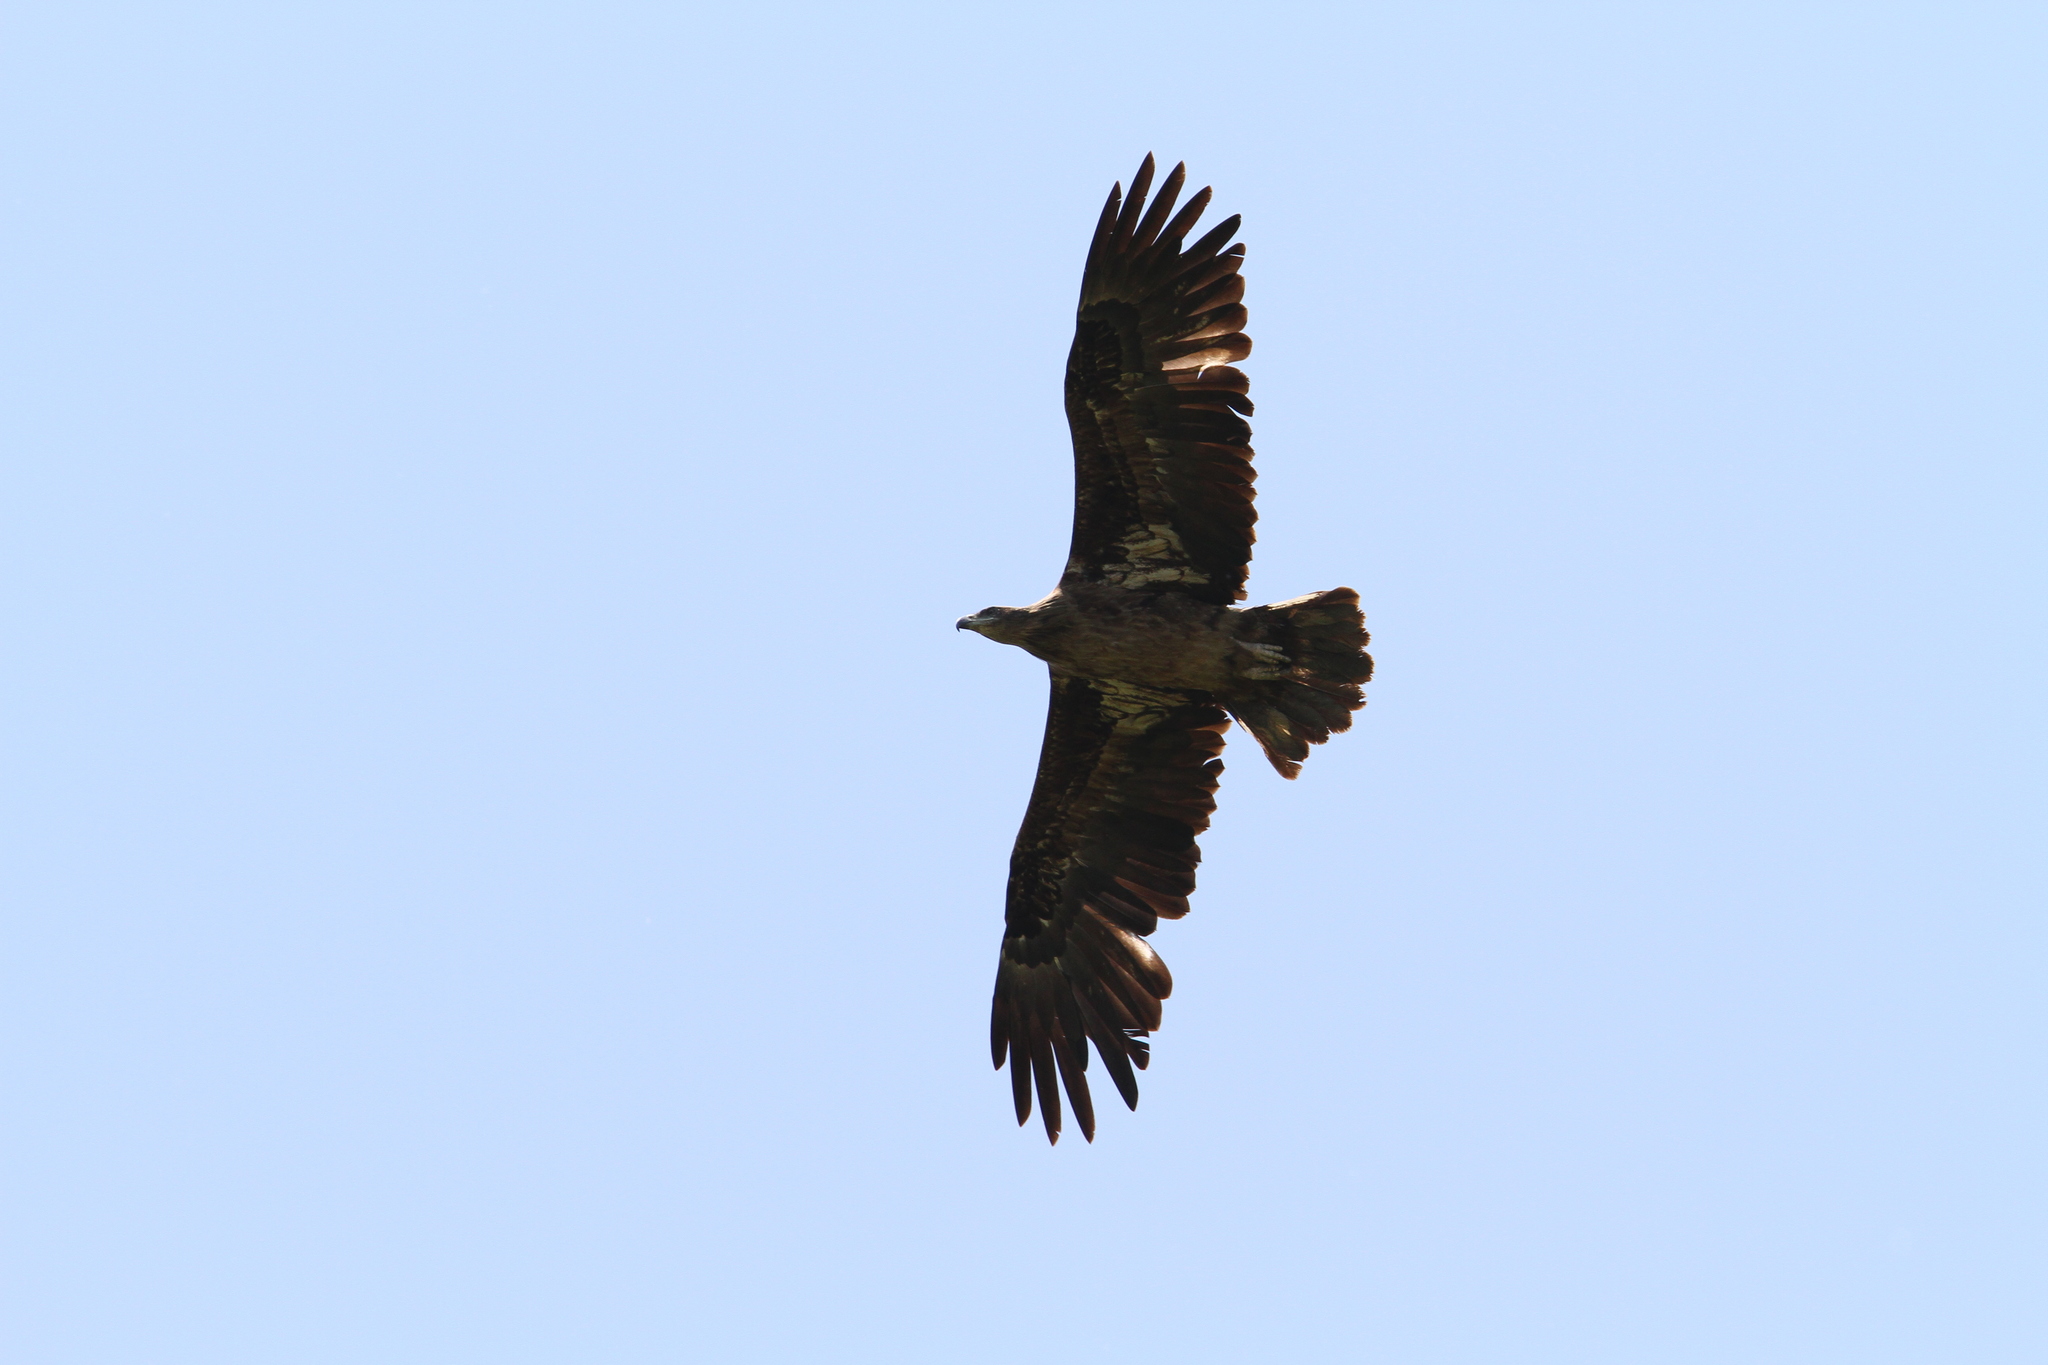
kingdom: Animalia
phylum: Chordata
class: Aves
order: Accipitriformes
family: Accipitridae
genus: Haliaeetus
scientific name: Haliaeetus leucoryphus
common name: Pallas's fish eagle
